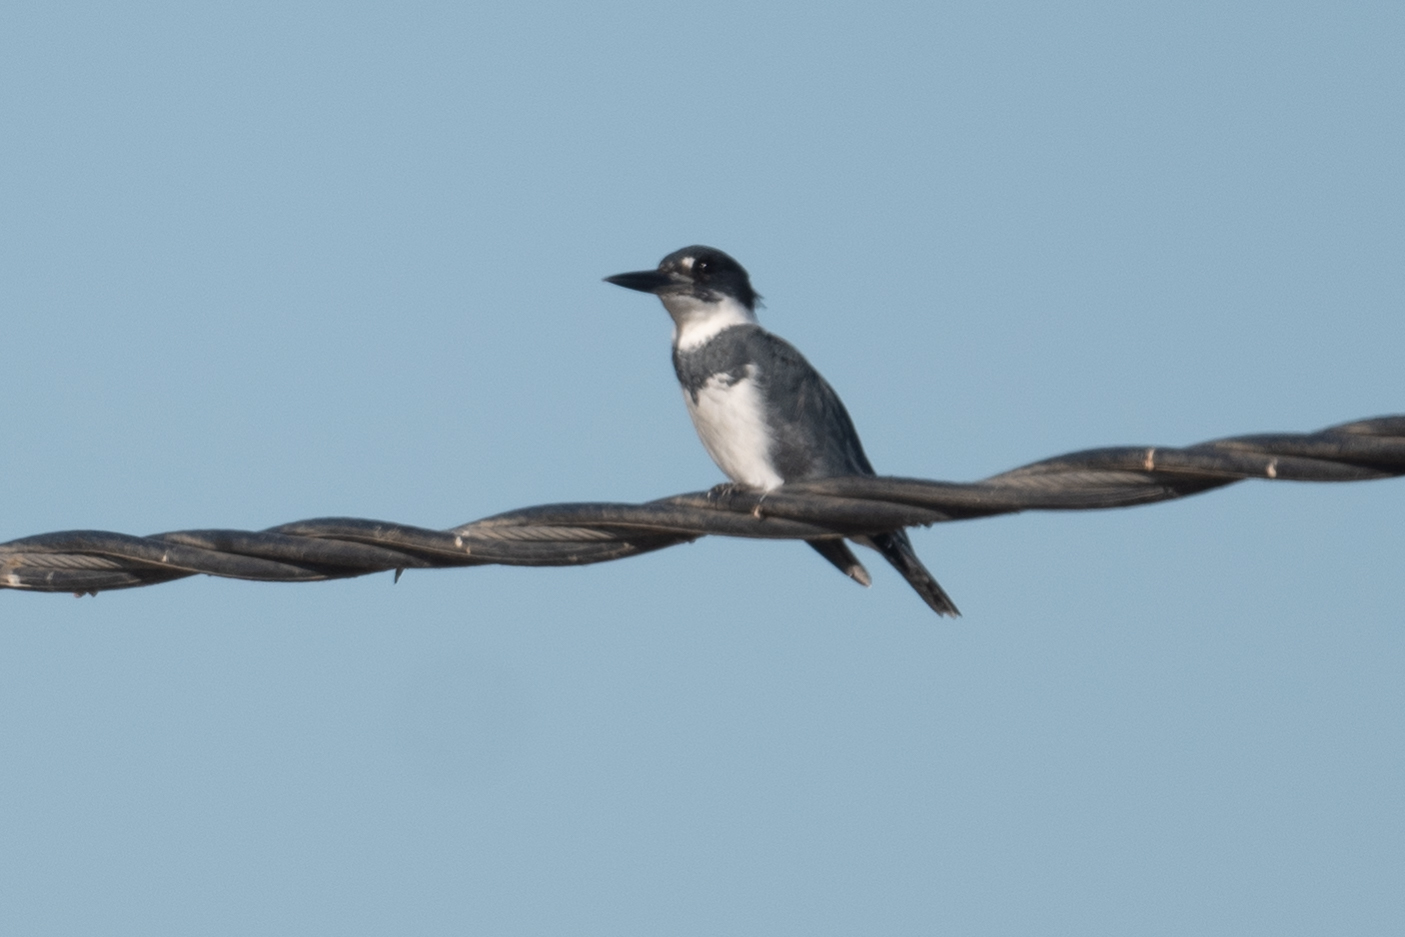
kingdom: Animalia
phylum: Chordata
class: Aves
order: Coraciiformes
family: Alcedinidae
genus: Megaceryle
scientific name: Megaceryle alcyon
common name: Belted kingfisher
